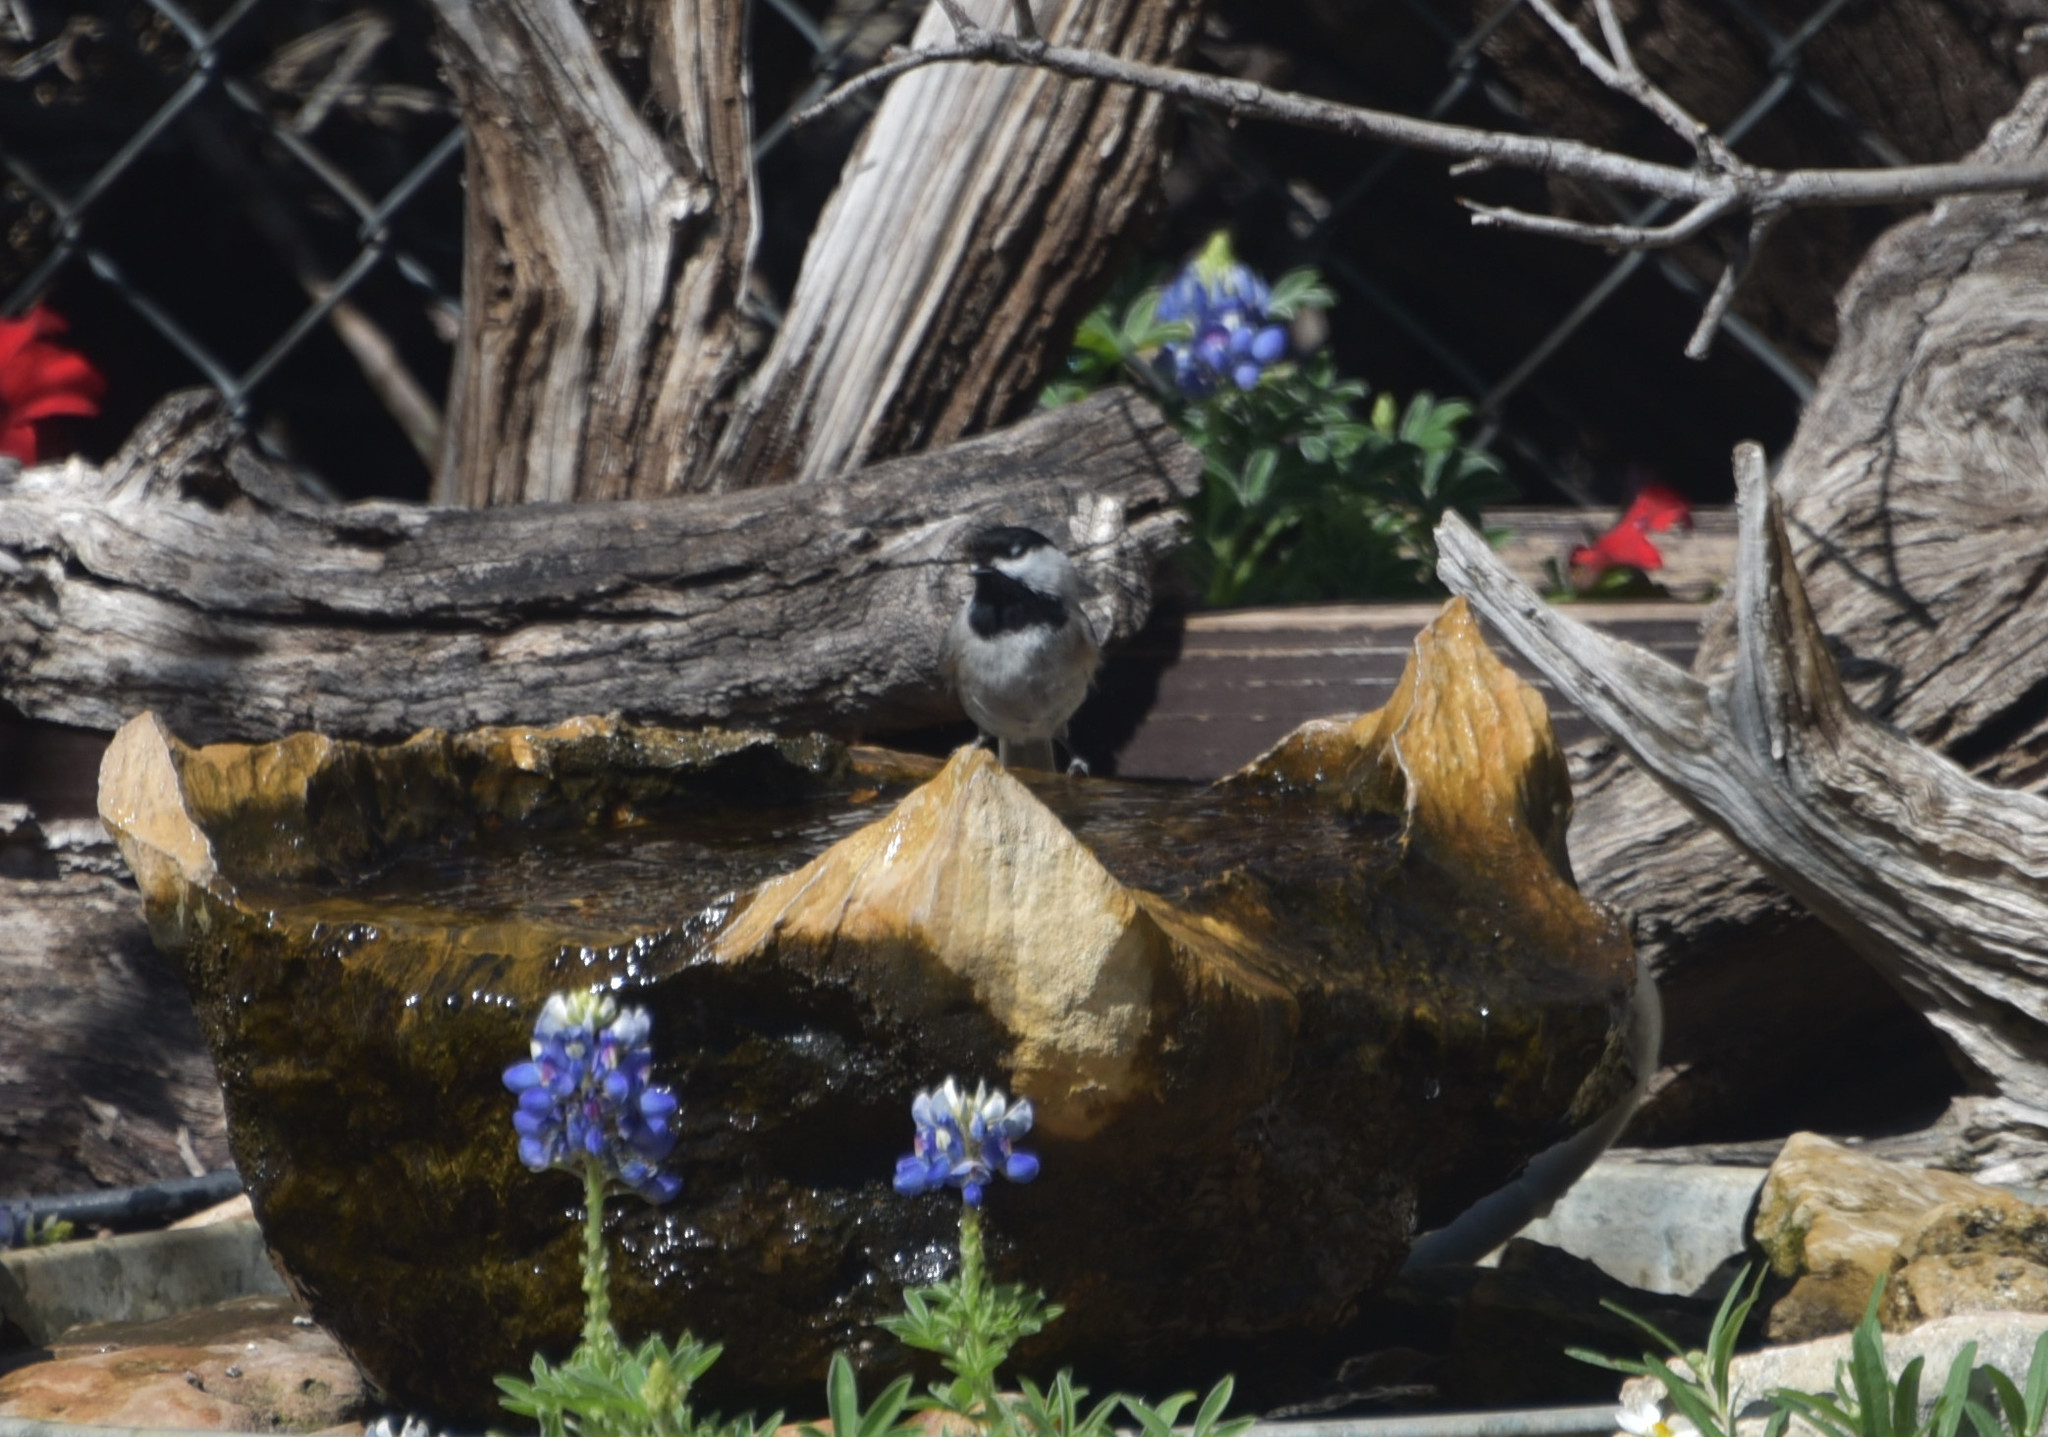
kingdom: Animalia
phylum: Chordata
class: Aves
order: Passeriformes
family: Paridae
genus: Poecile
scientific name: Poecile carolinensis
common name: Carolina chickadee
